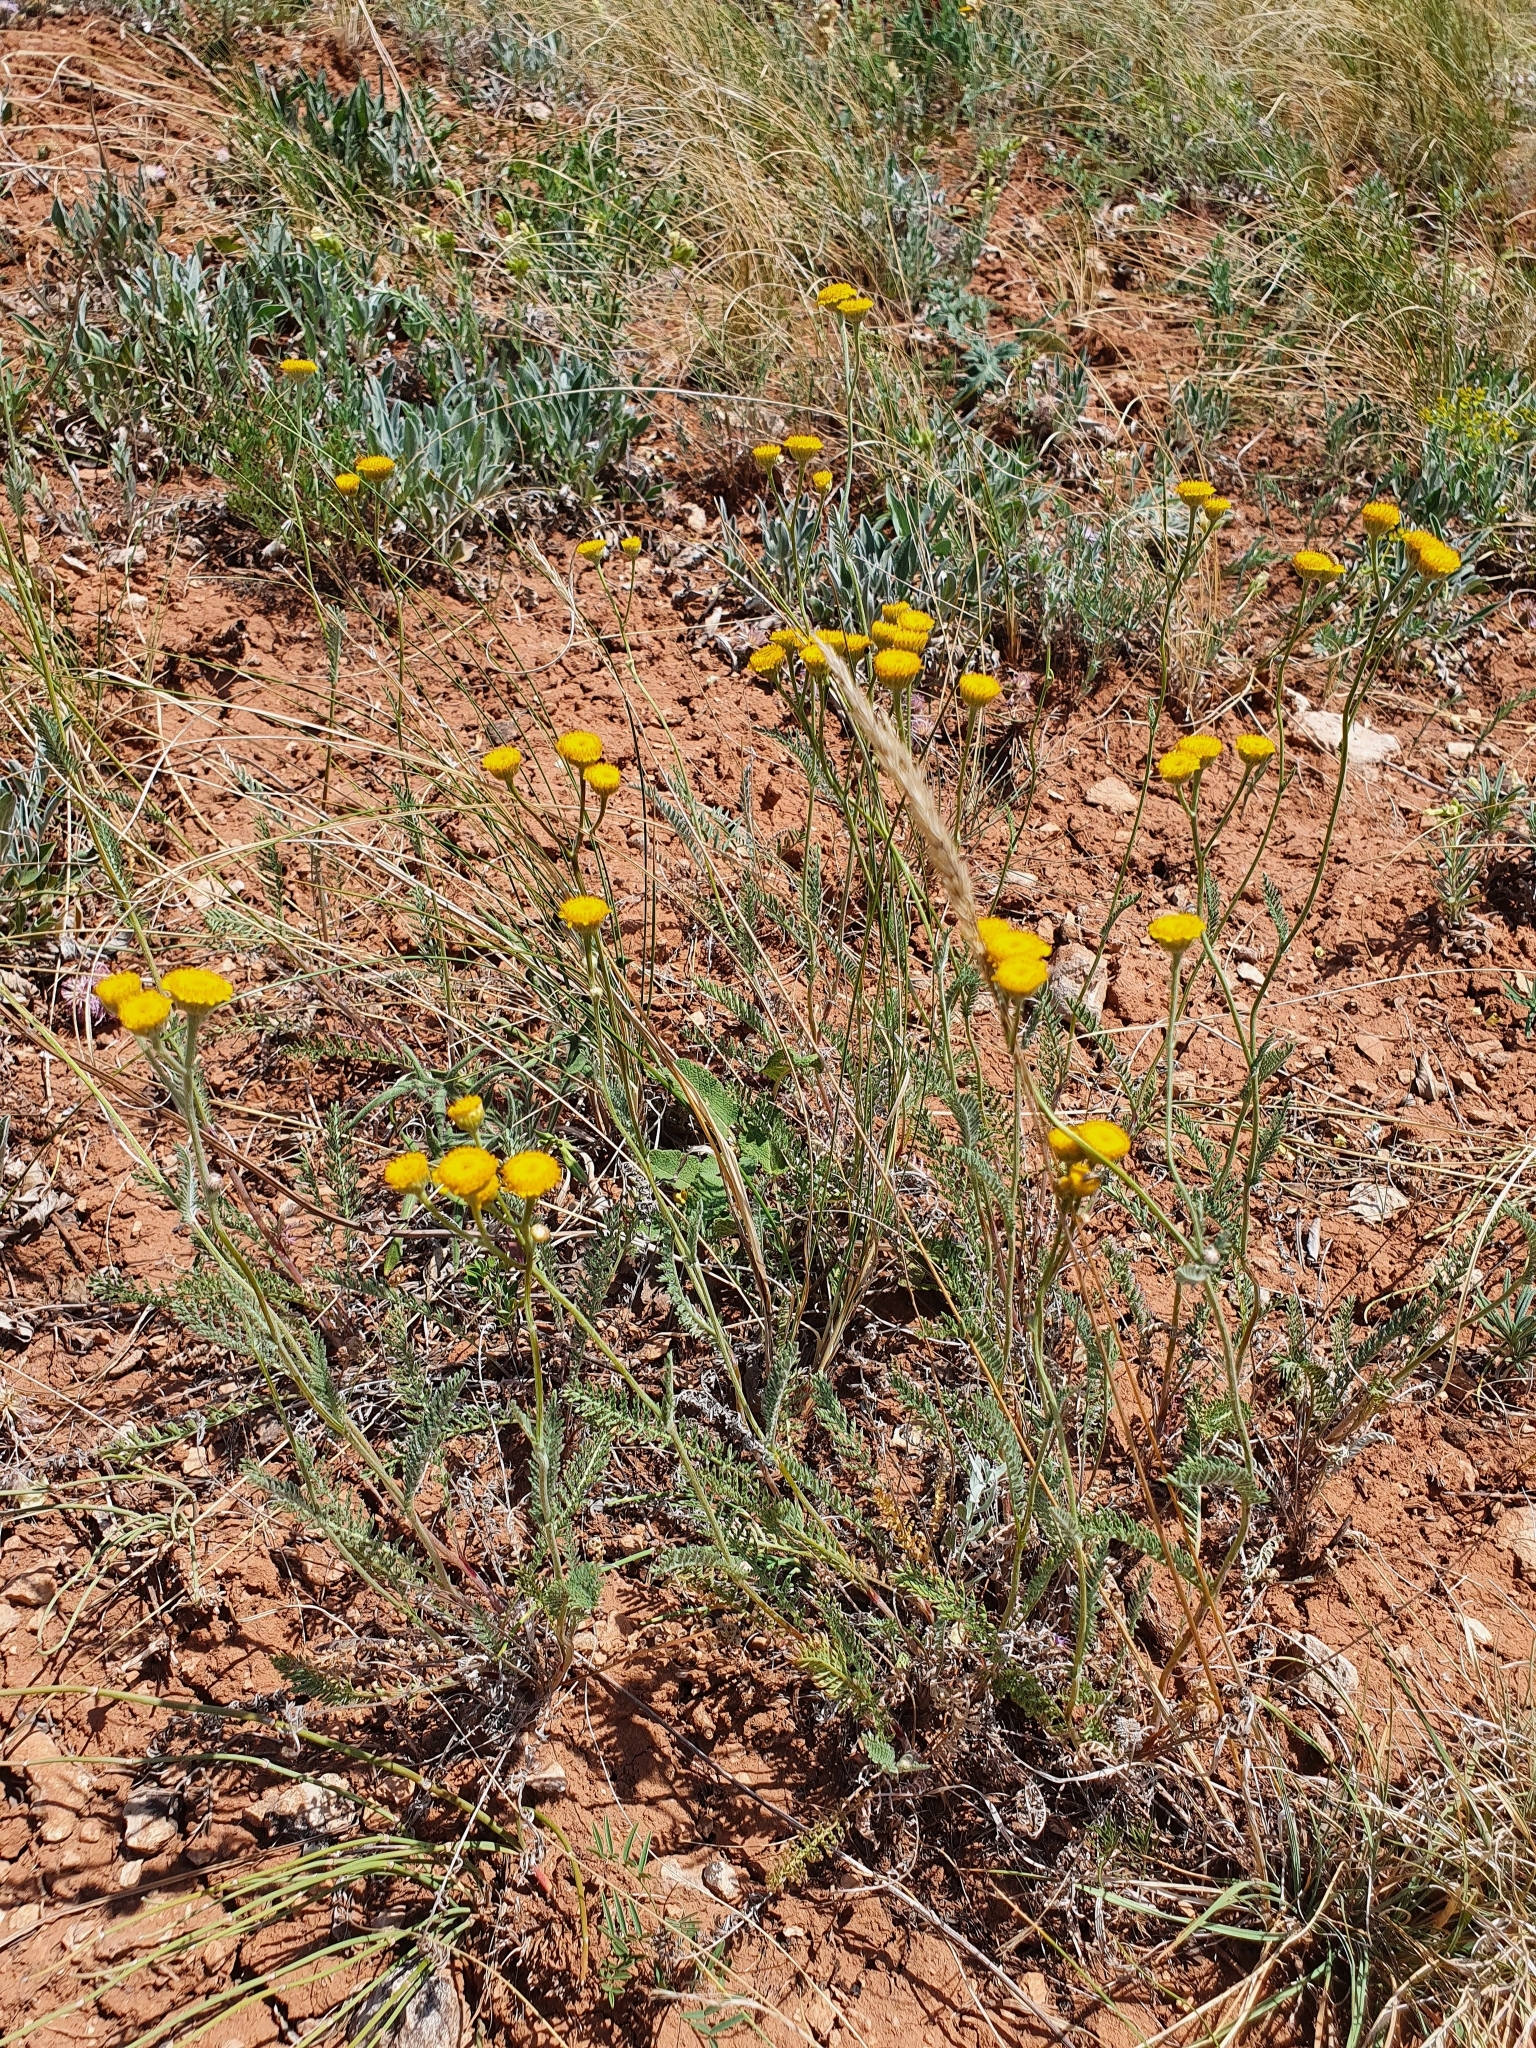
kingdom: Plantae
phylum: Tracheophyta
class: Magnoliopsida
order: Asterales
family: Asteraceae
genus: Tanacetum
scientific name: Tanacetum millefolium
